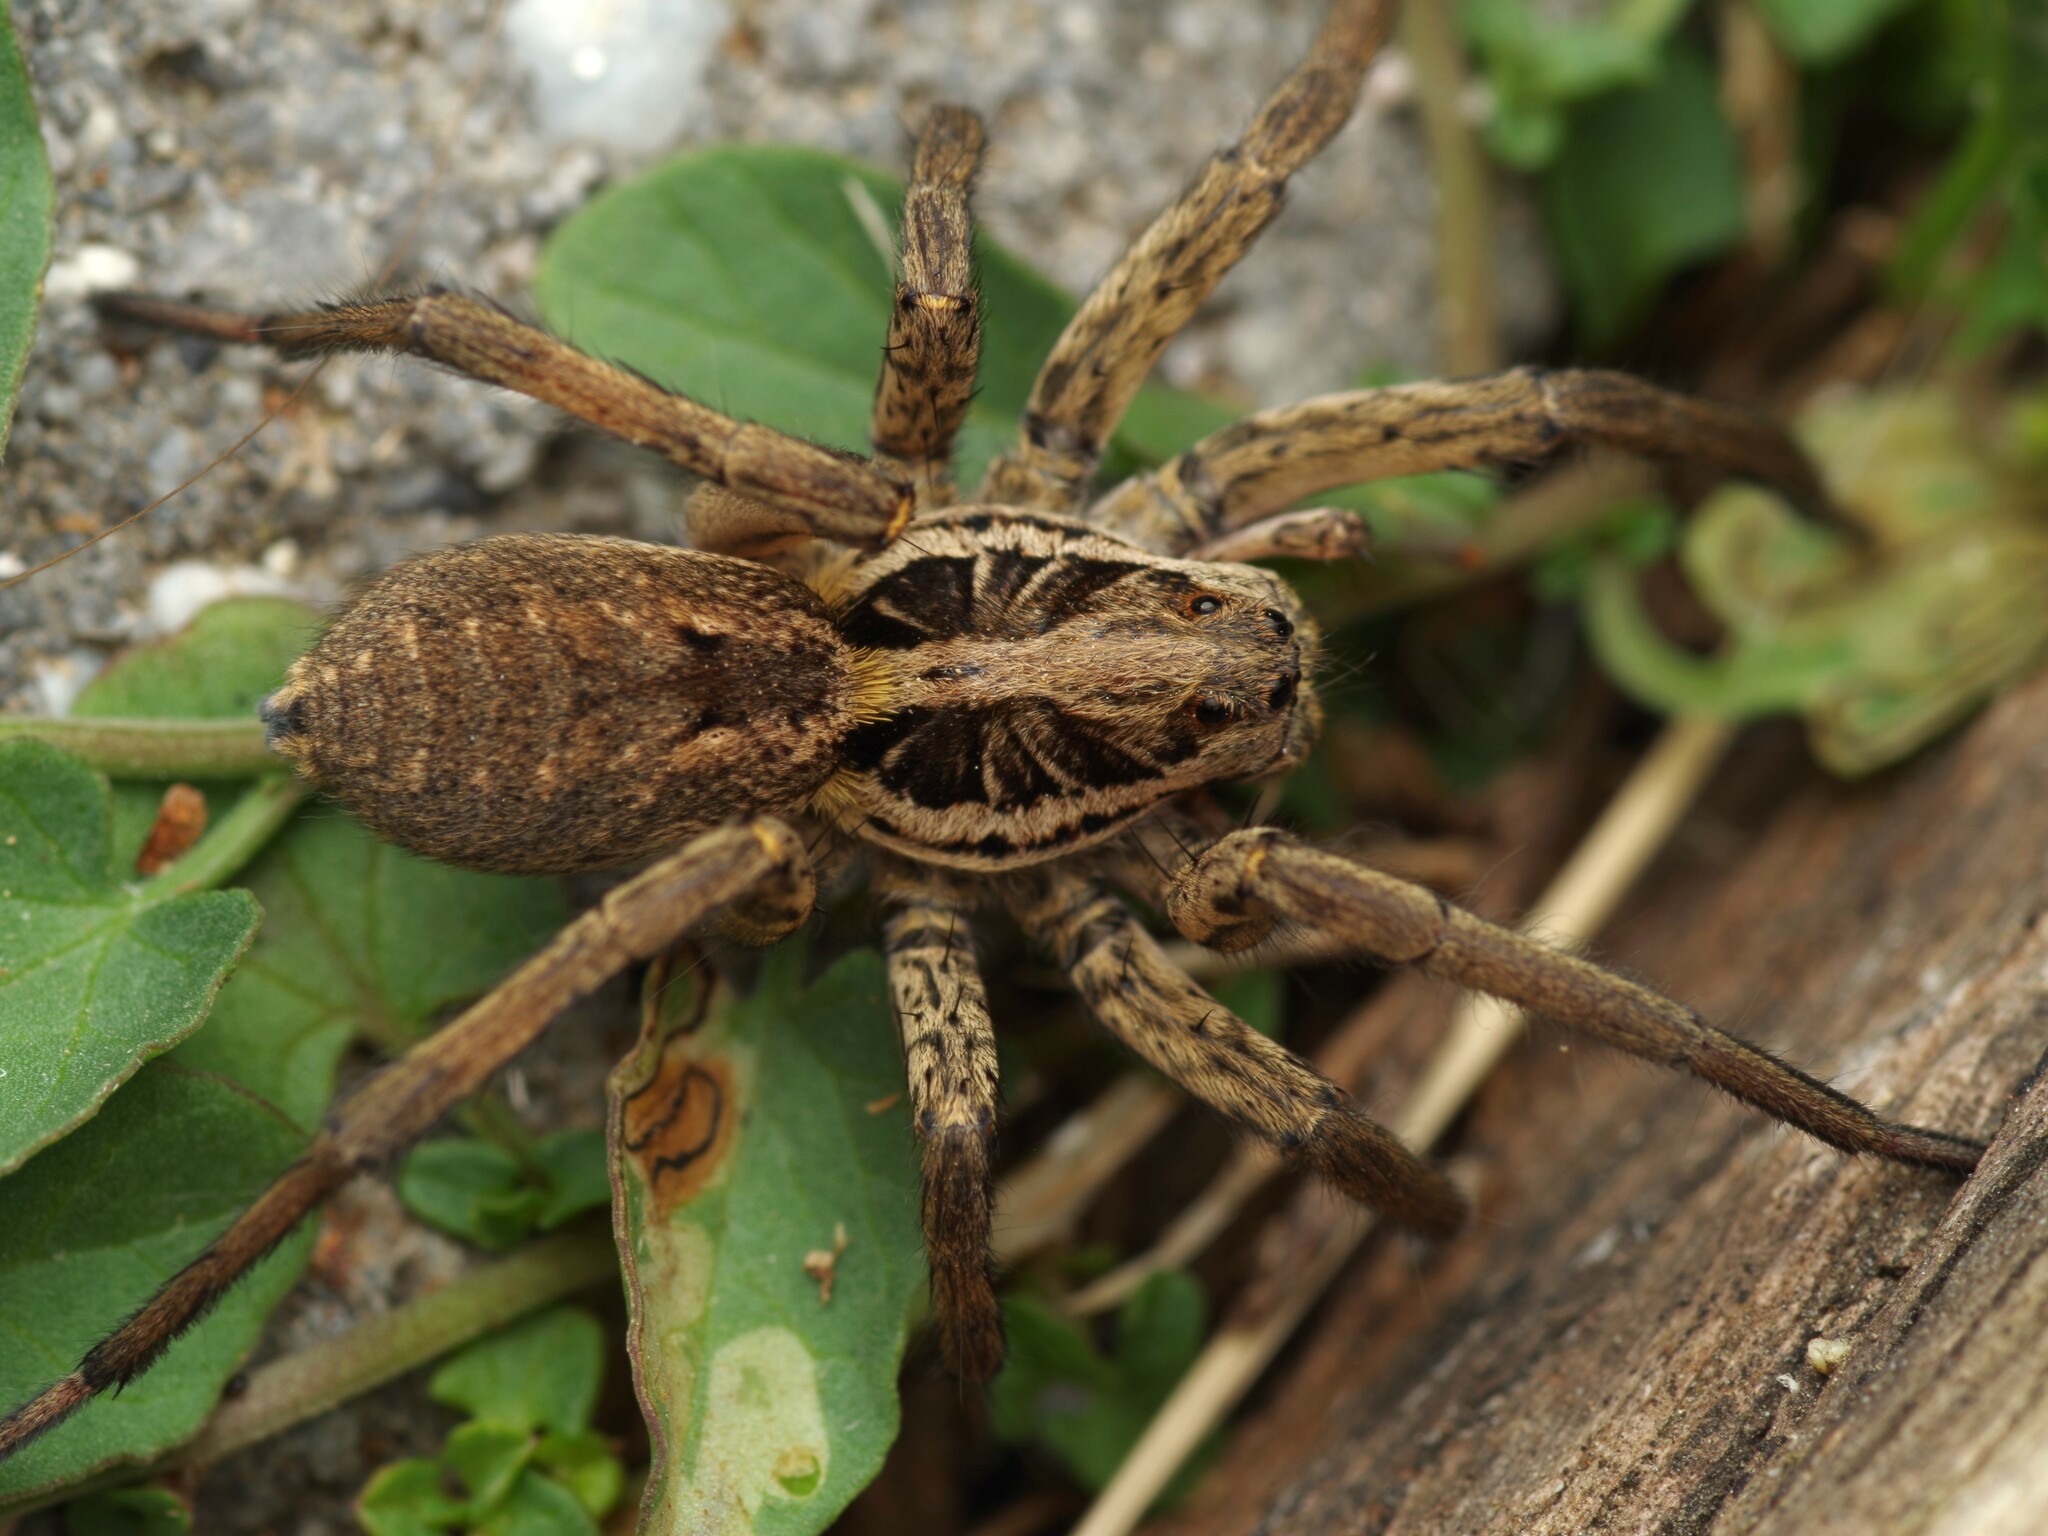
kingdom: Animalia
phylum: Arthropoda
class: Arachnida
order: Araneae
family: Lycosidae
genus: Hogna
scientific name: Hogna radiata
